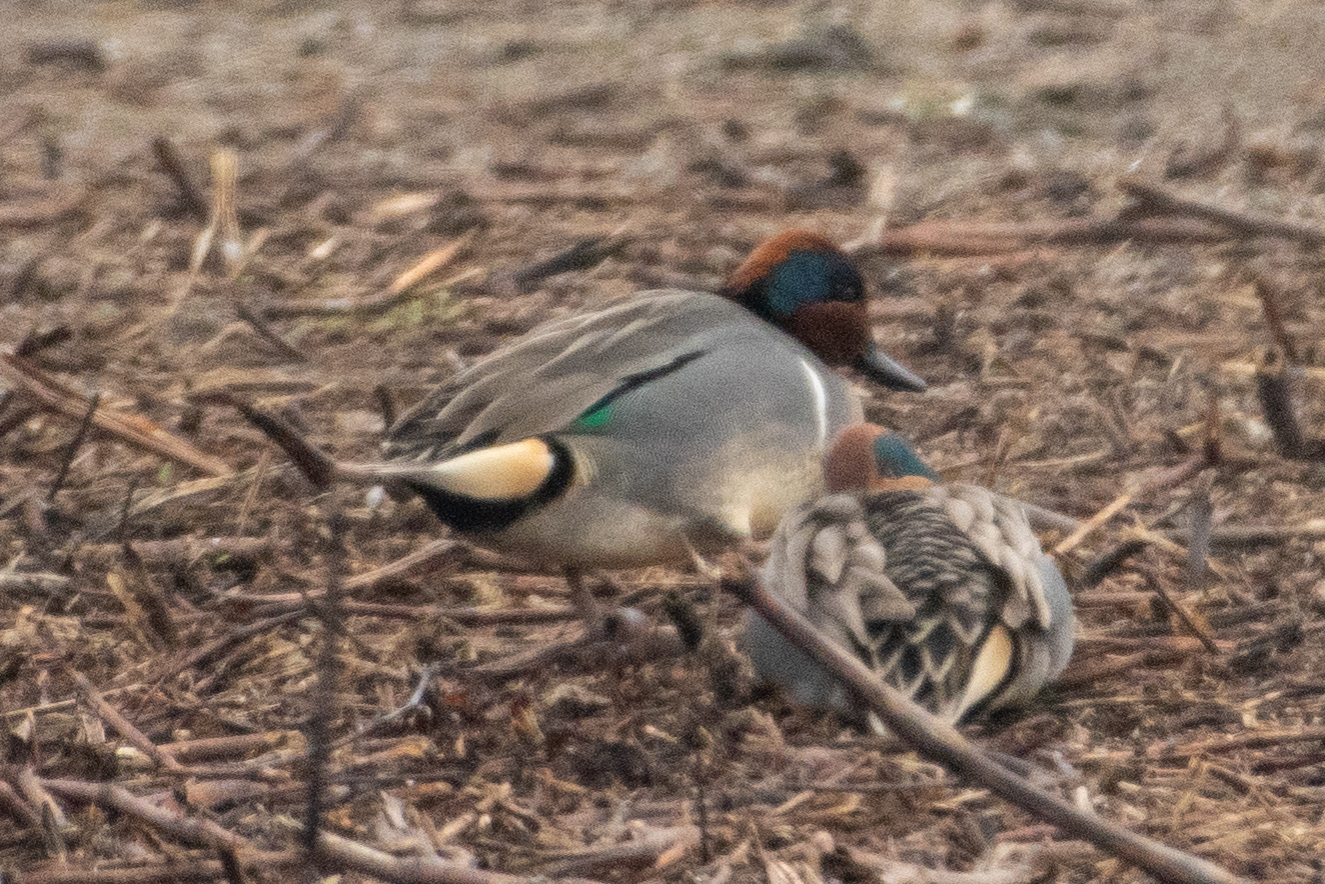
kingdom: Animalia
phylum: Chordata
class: Aves
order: Anseriformes
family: Anatidae
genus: Anas
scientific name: Anas crecca
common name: Eurasian teal
